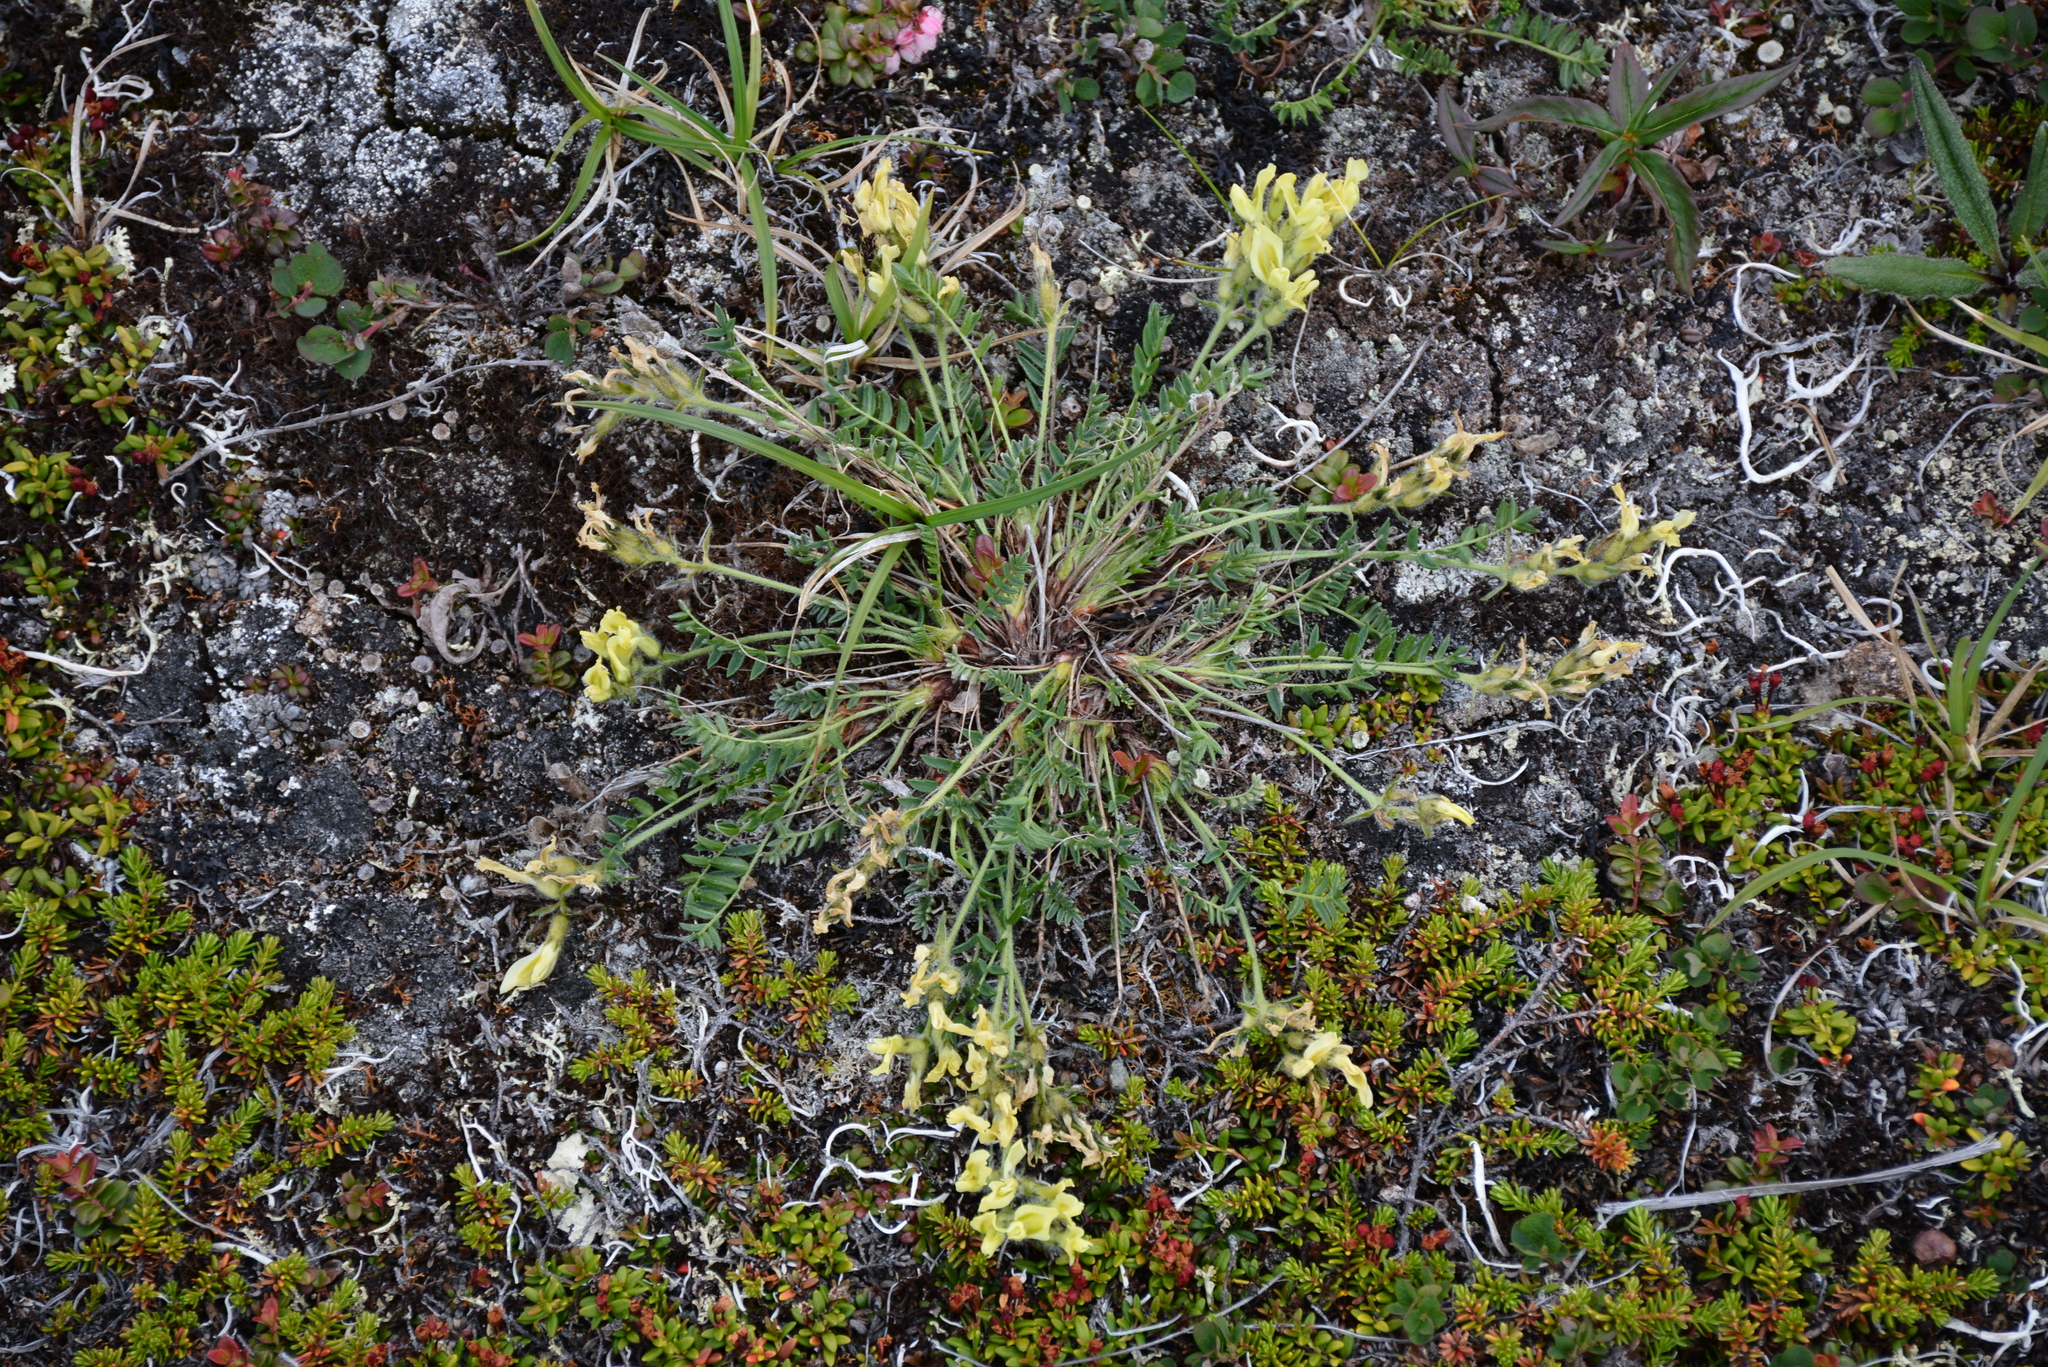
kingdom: Plantae
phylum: Tracheophyta
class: Magnoliopsida
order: Fabales
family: Fabaceae
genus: Oxytropis
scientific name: Oxytropis maydelliana
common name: Maydell's locoweed
